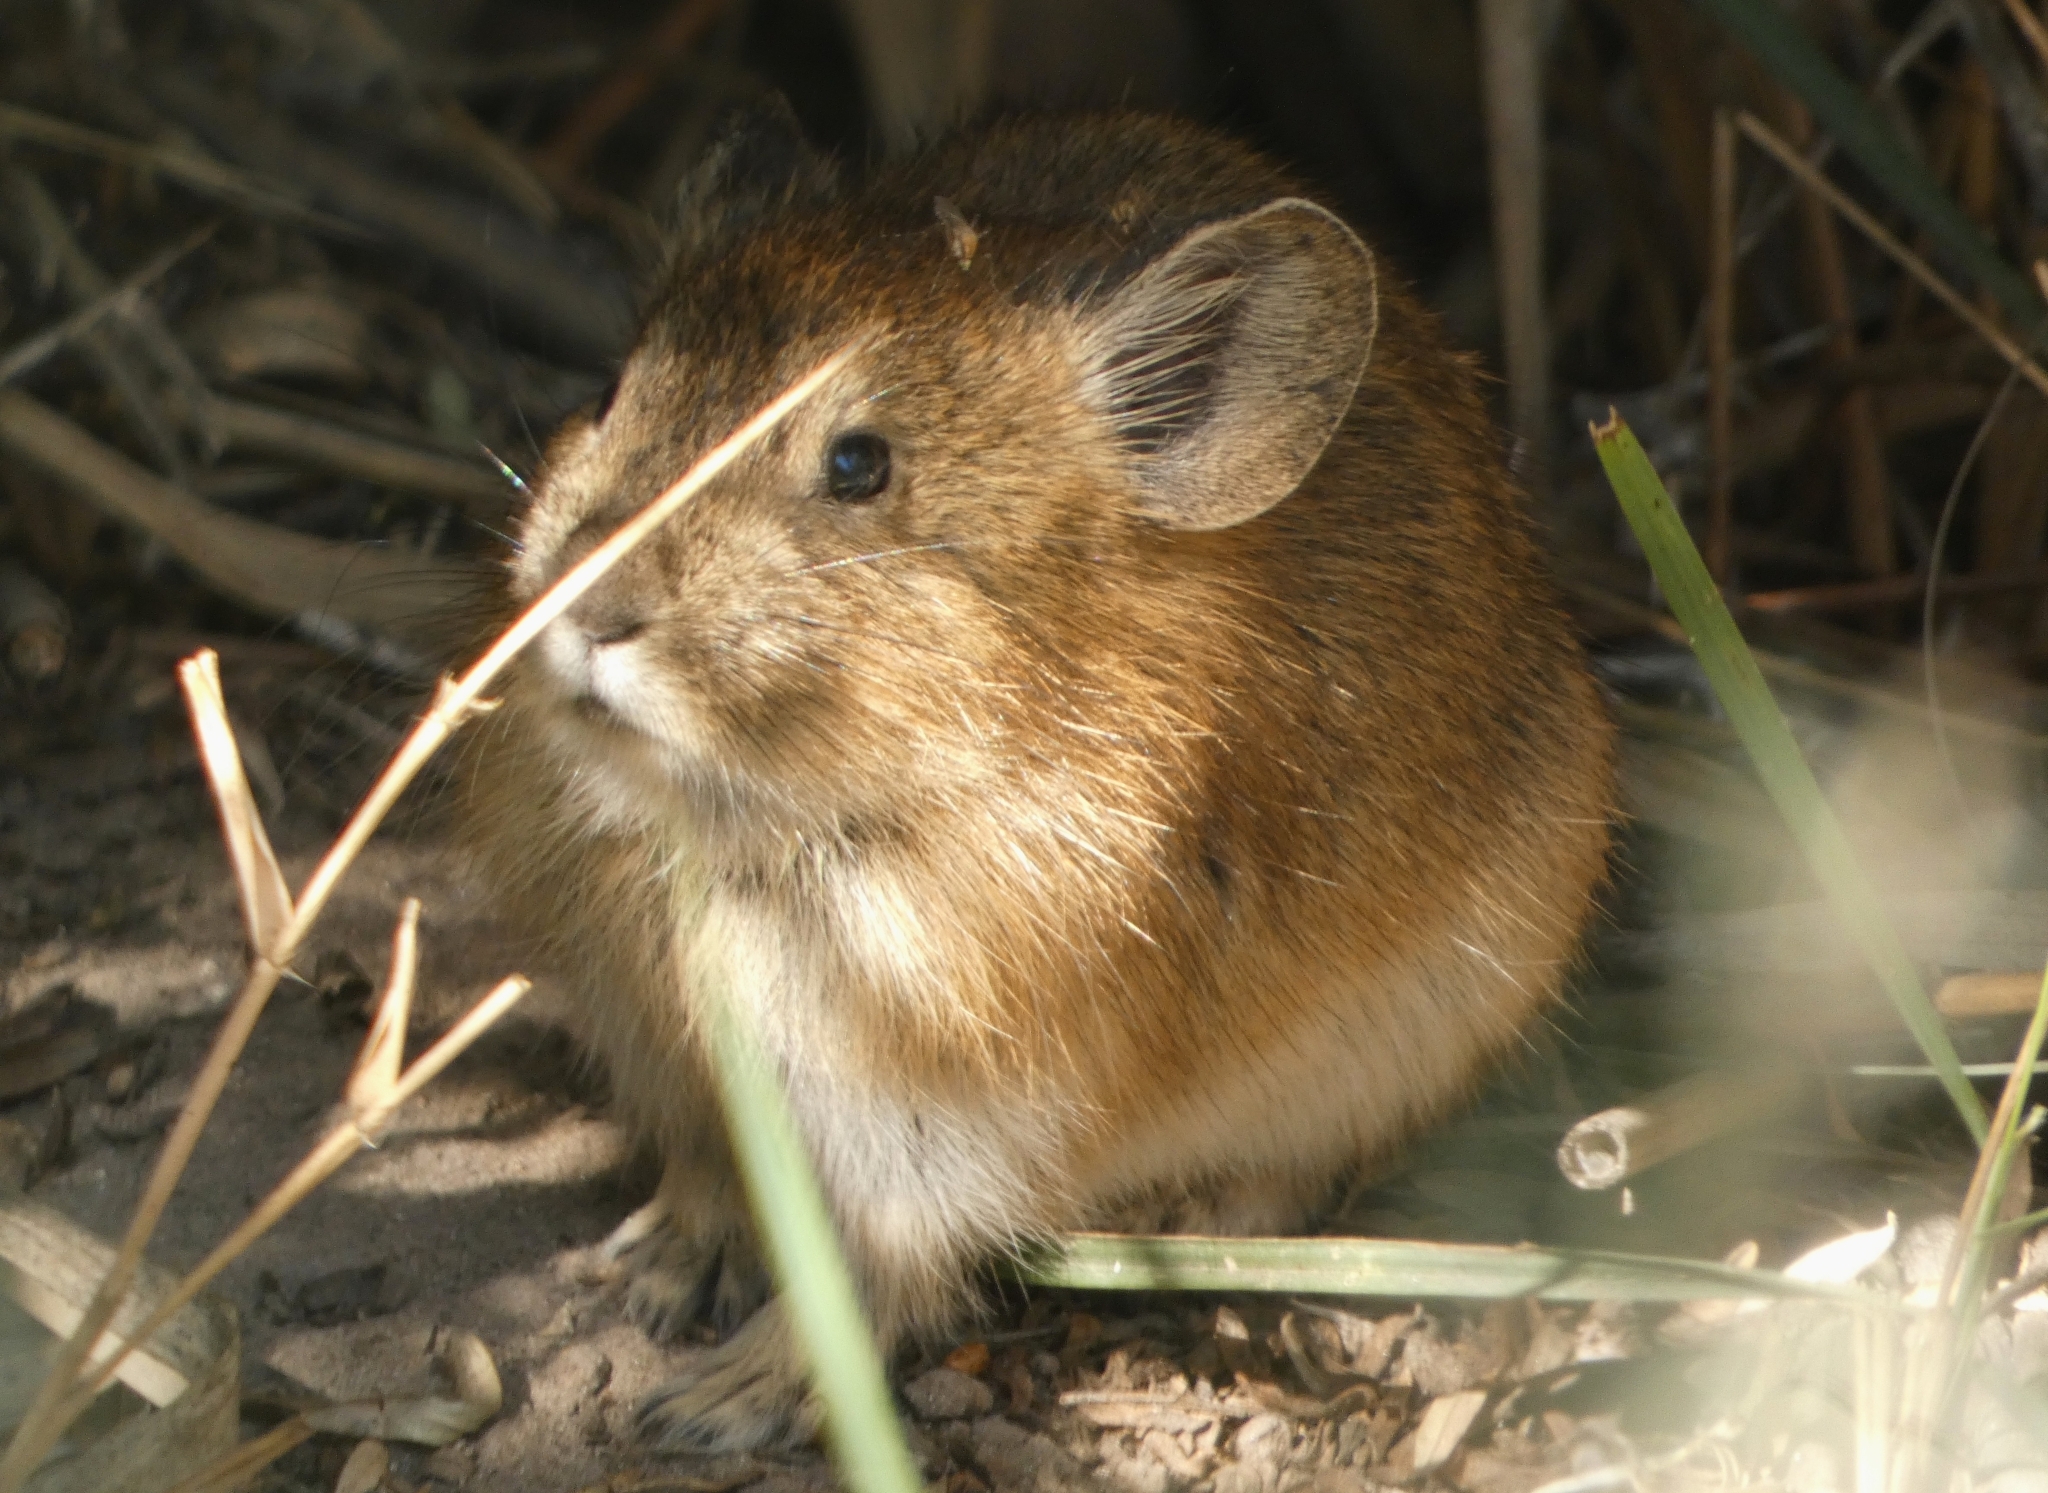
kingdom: Animalia
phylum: Chordata
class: Mammalia
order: Lagomorpha
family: Ochotonidae
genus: Ochotona
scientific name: Ochotona nubrica
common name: Nubra pika
